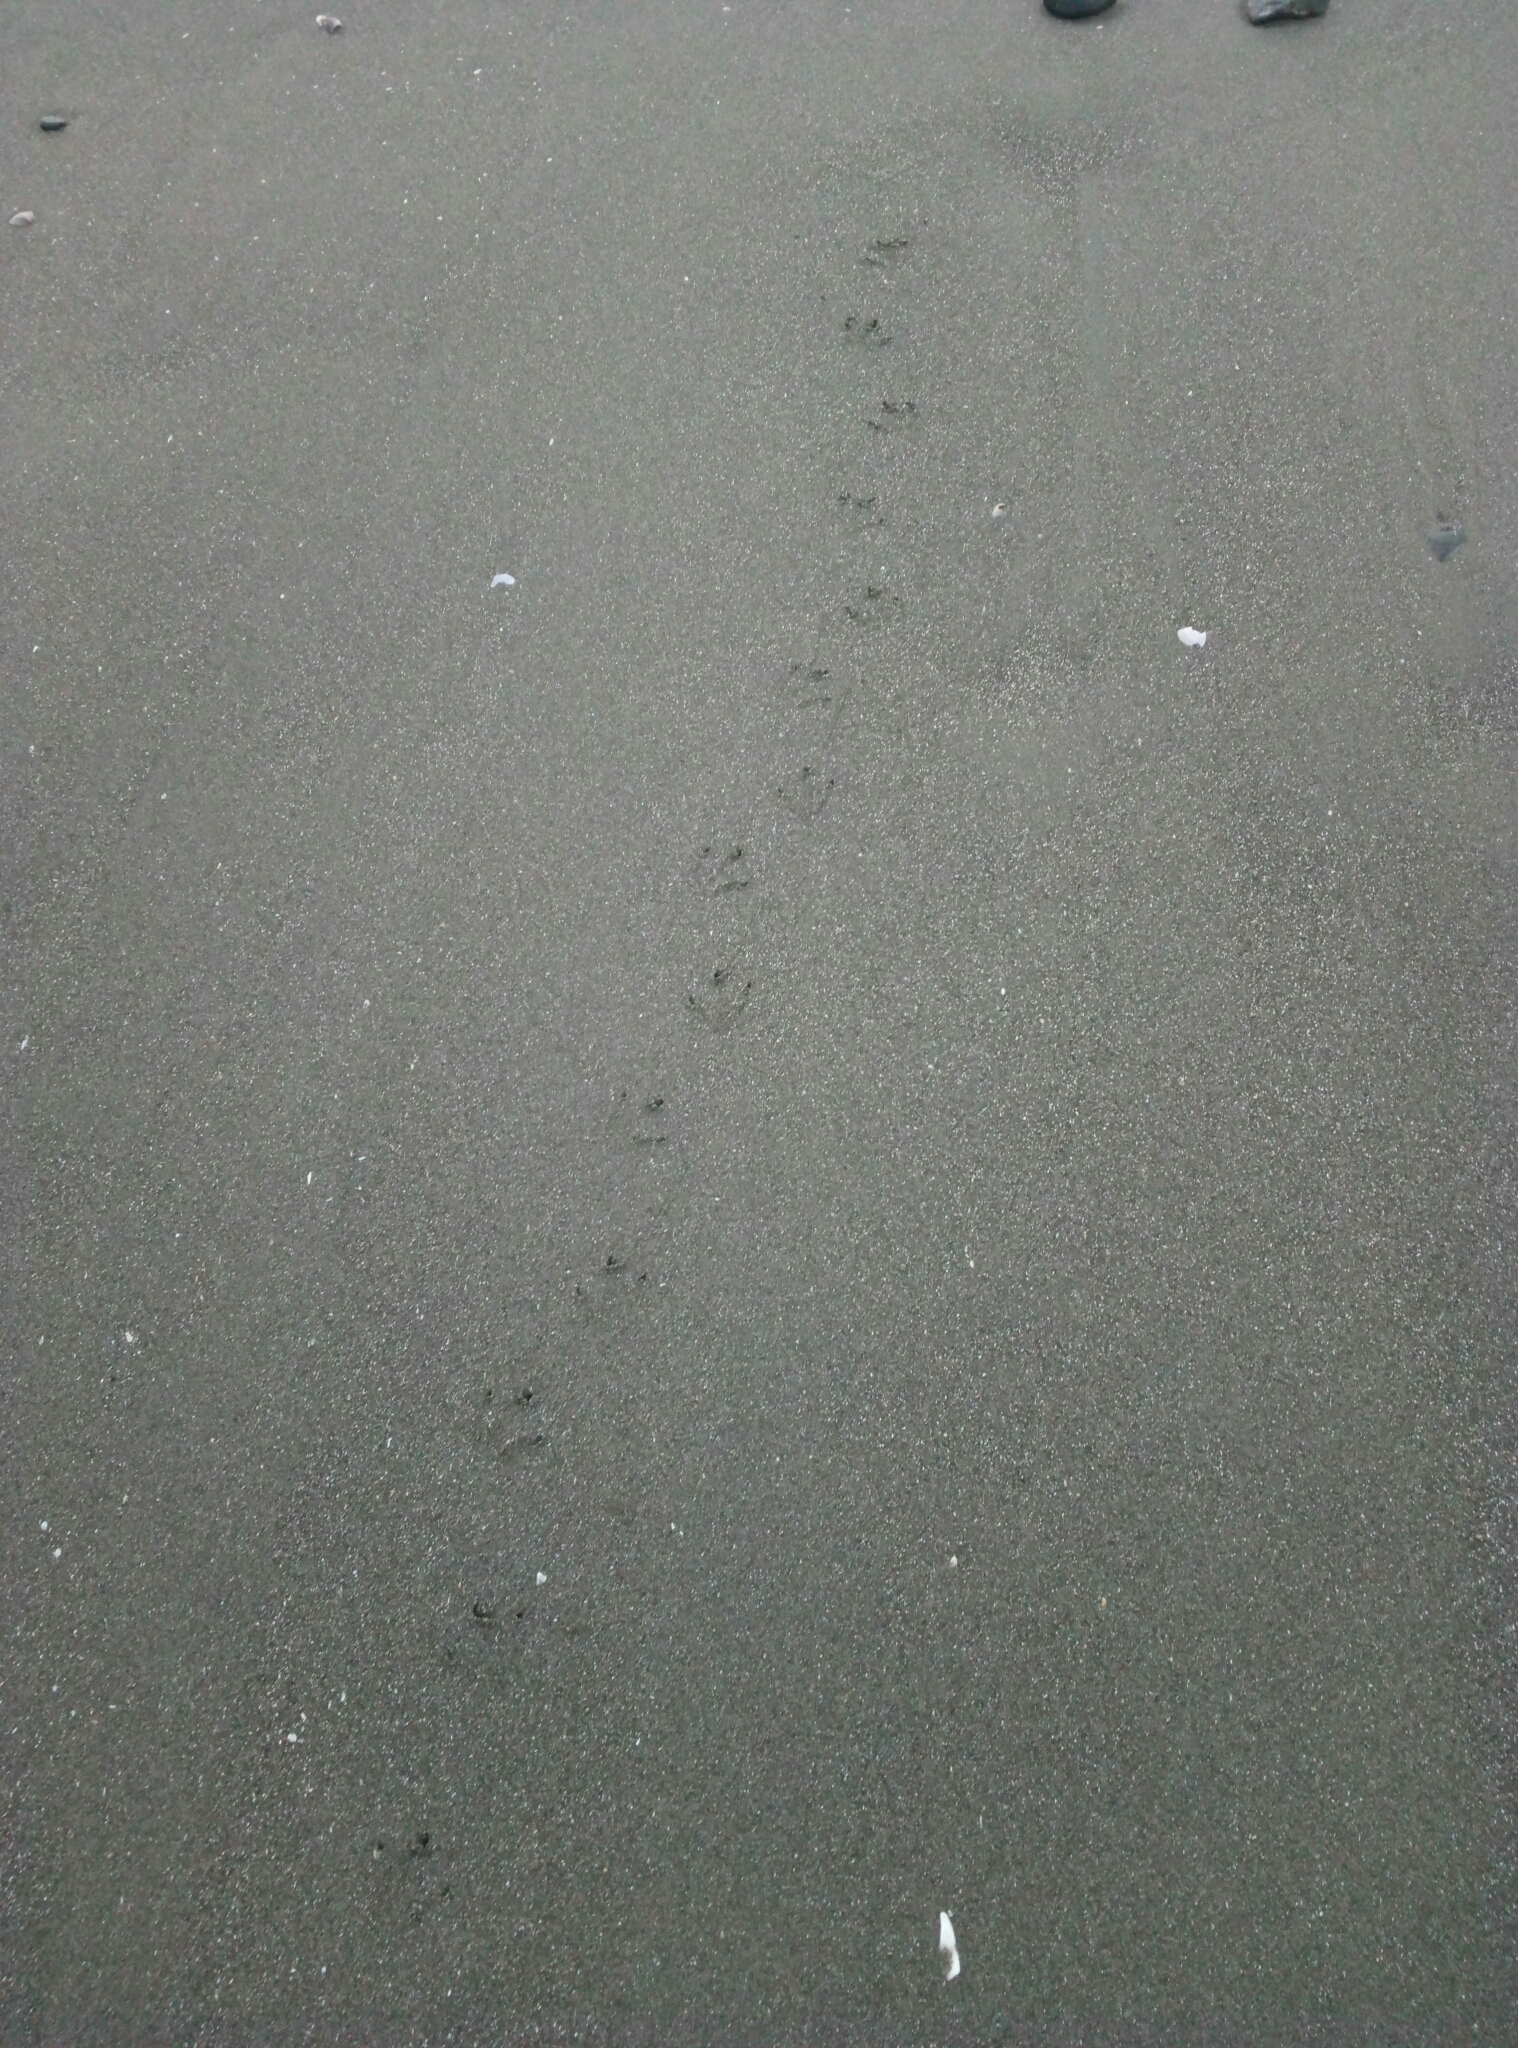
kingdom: Animalia
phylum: Chordata
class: Aves
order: Sphenisciformes
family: Spheniscidae
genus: Eudyptula
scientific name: Eudyptula minor
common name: Little penguin
